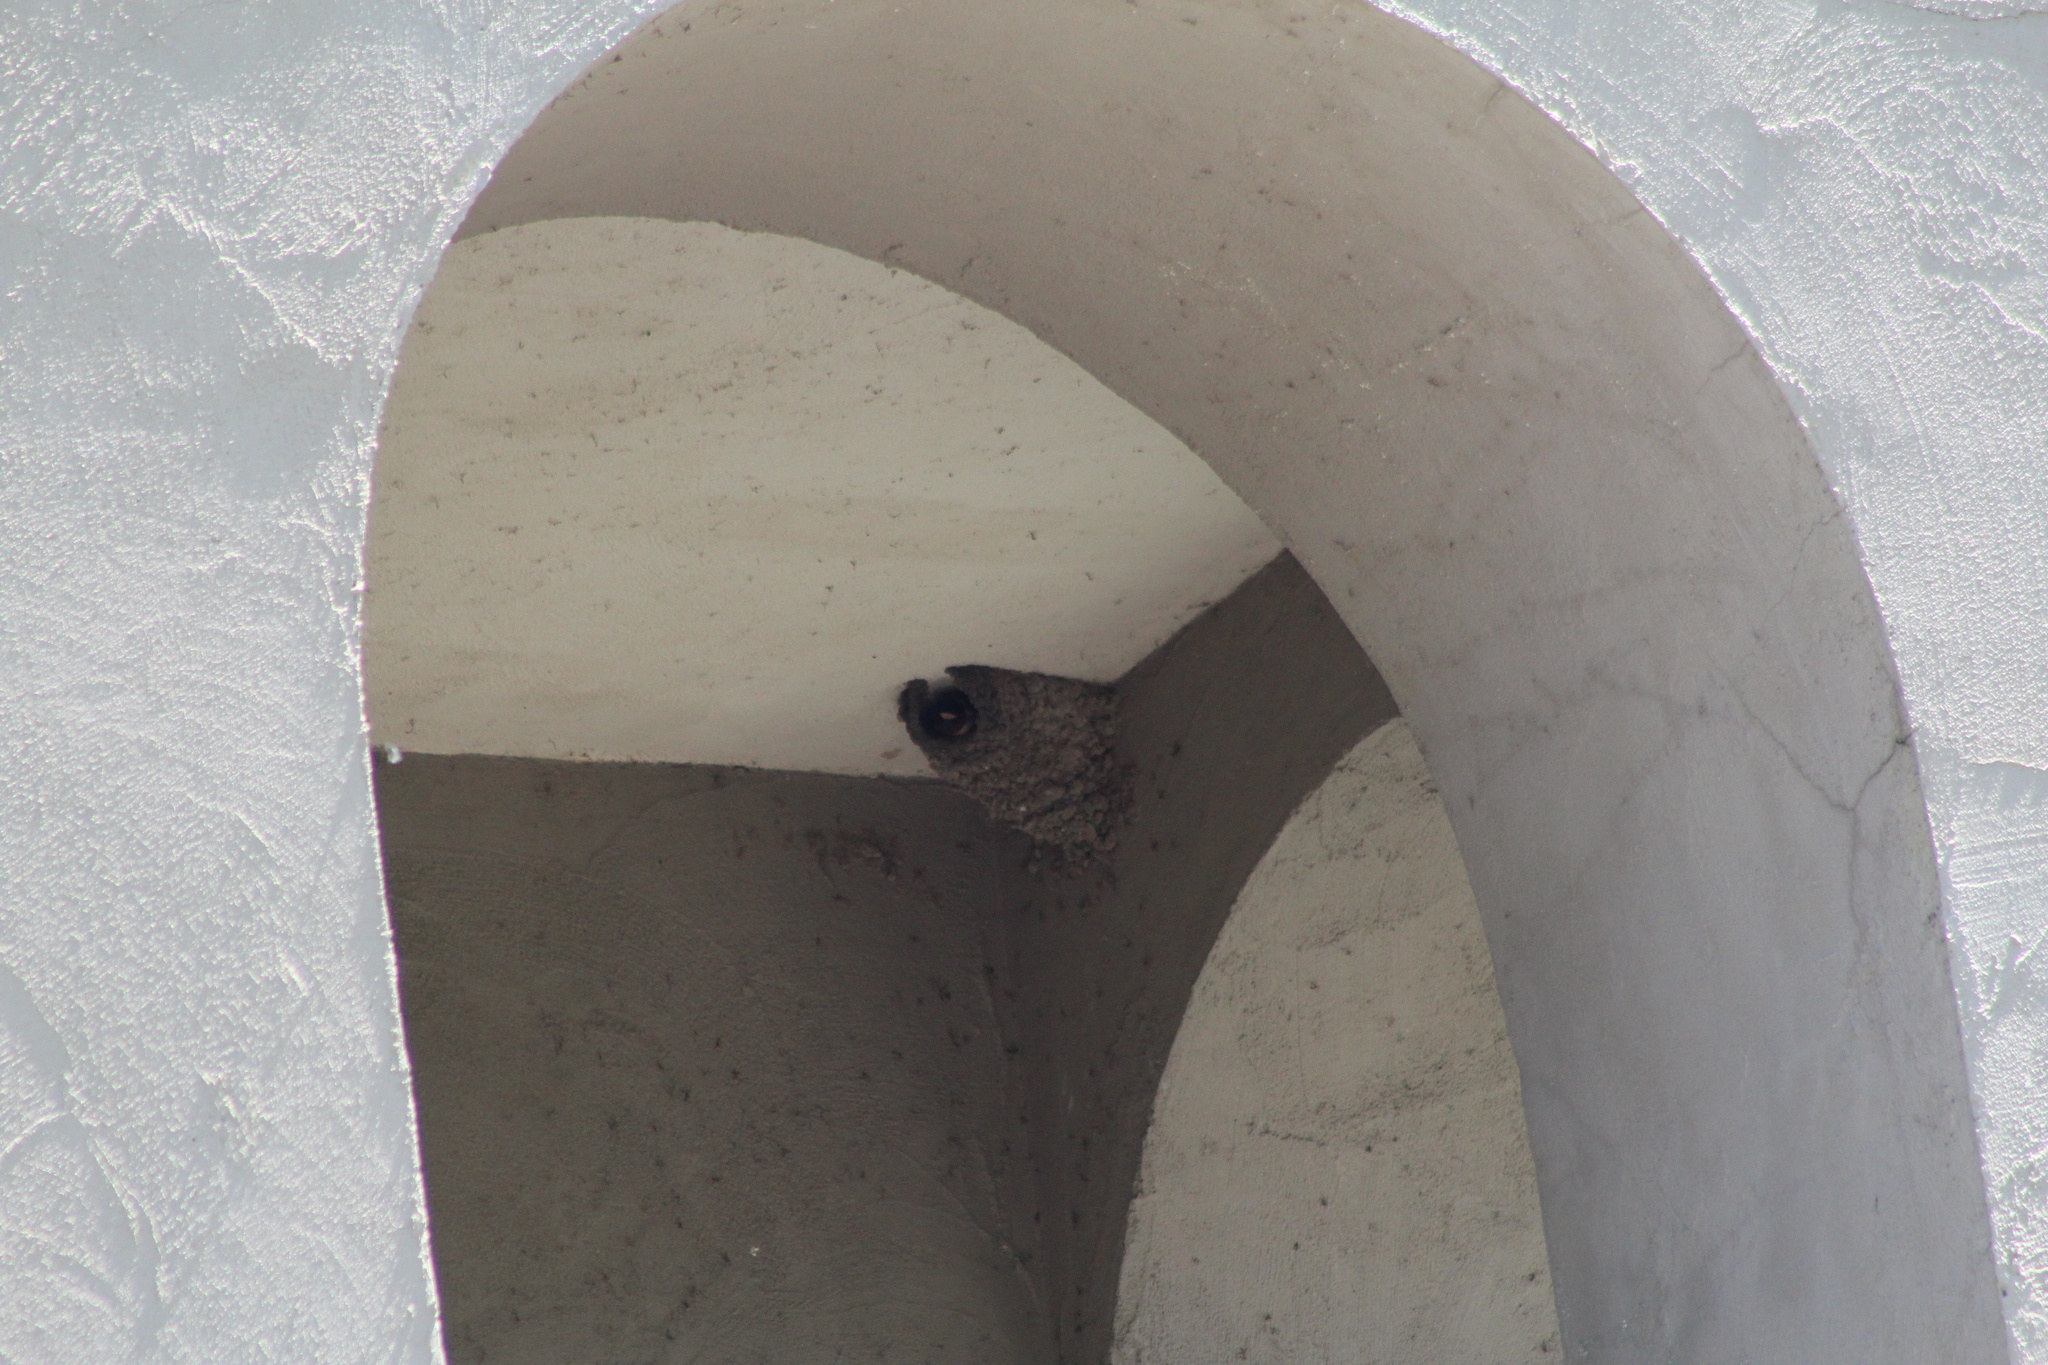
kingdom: Animalia
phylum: Chordata
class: Aves
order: Passeriformes
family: Hirundinidae
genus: Petrochelidon
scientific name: Petrochelidon pyrrhonota
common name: American cliff swallow
